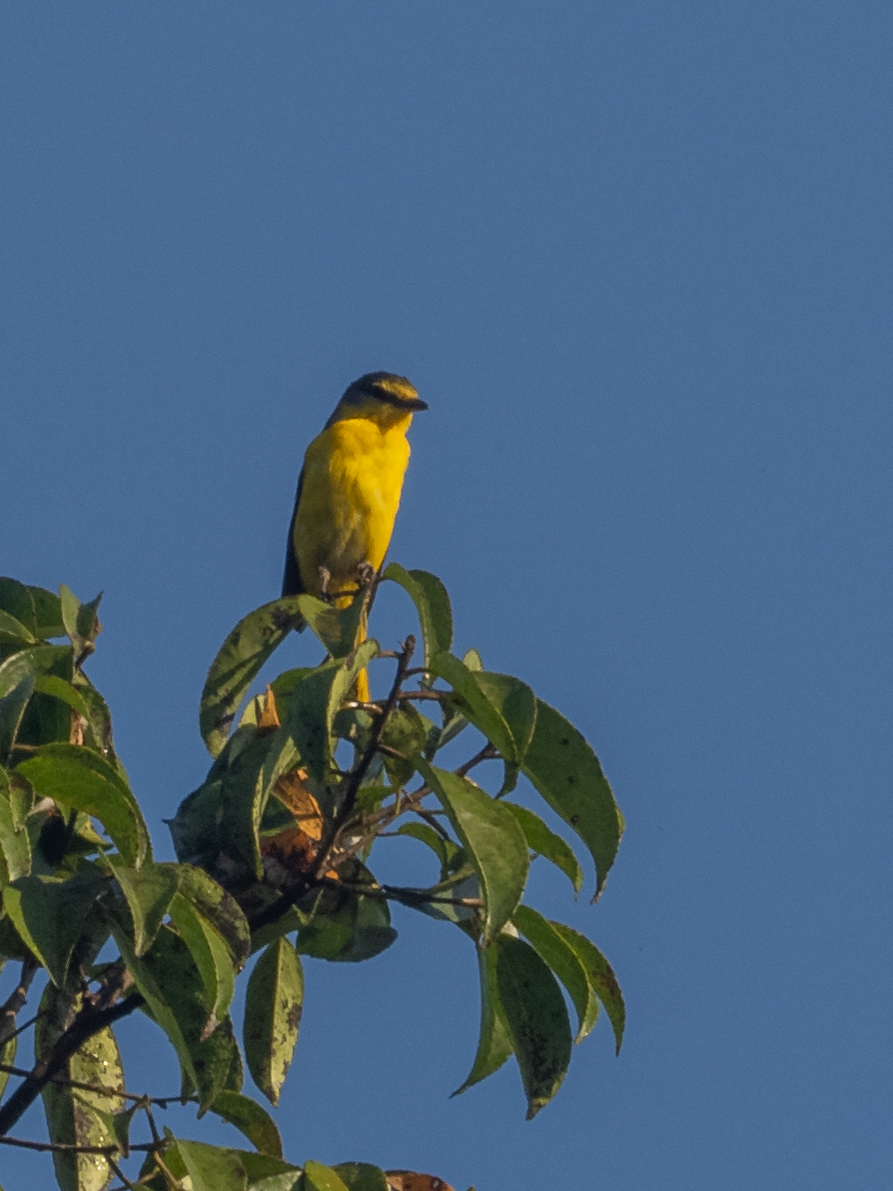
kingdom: Animalia
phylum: Chordata
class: Aves
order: Passeriformes
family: Campephagidae
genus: Pericrocotus
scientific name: Pericrocotus flammeus
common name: Orange minivet
